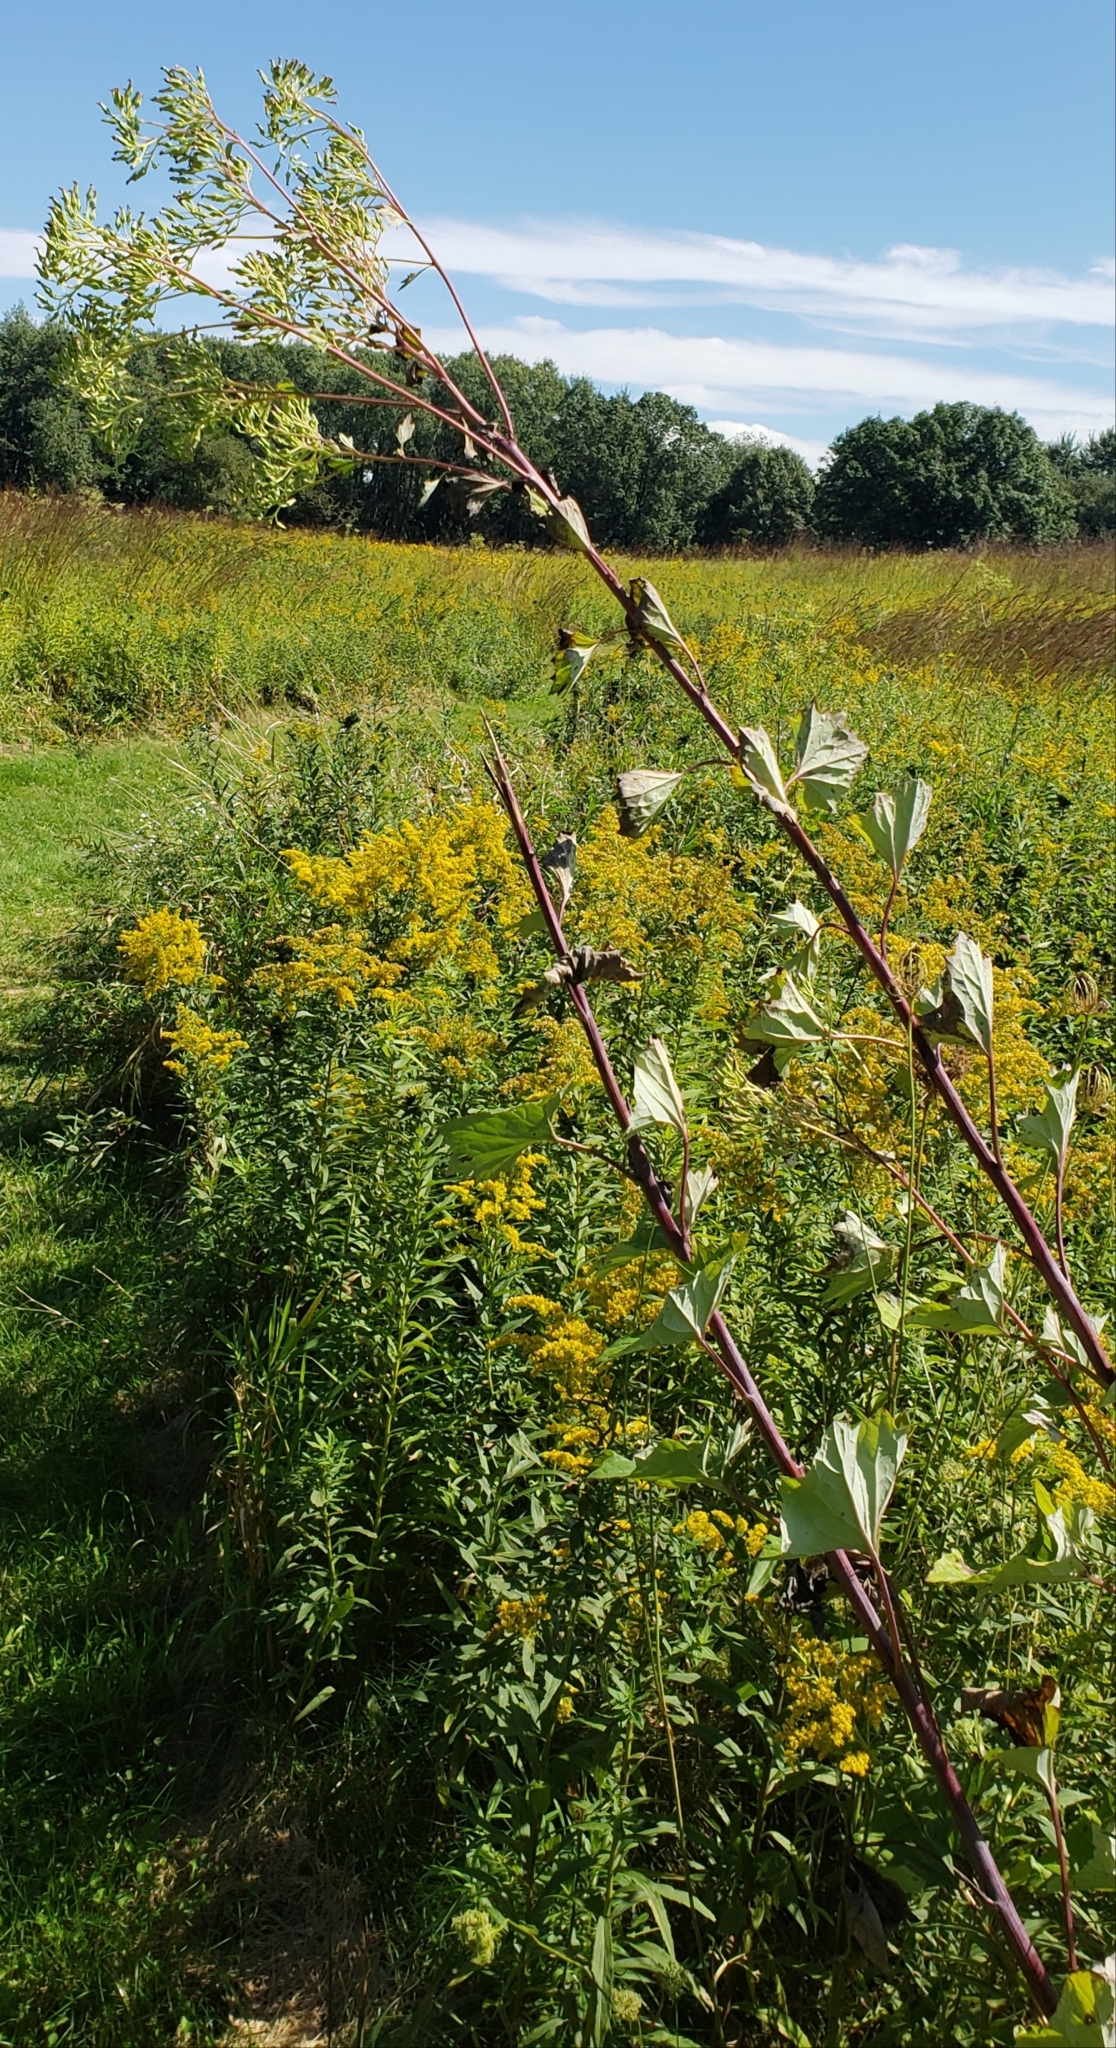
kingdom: Plantae
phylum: Tracheophyta
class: Magnoliopsida
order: Asterales
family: Asteraceae
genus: Arnoglossum
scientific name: Arnoglossum atriplicifolium
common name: Pale indian-plantain
